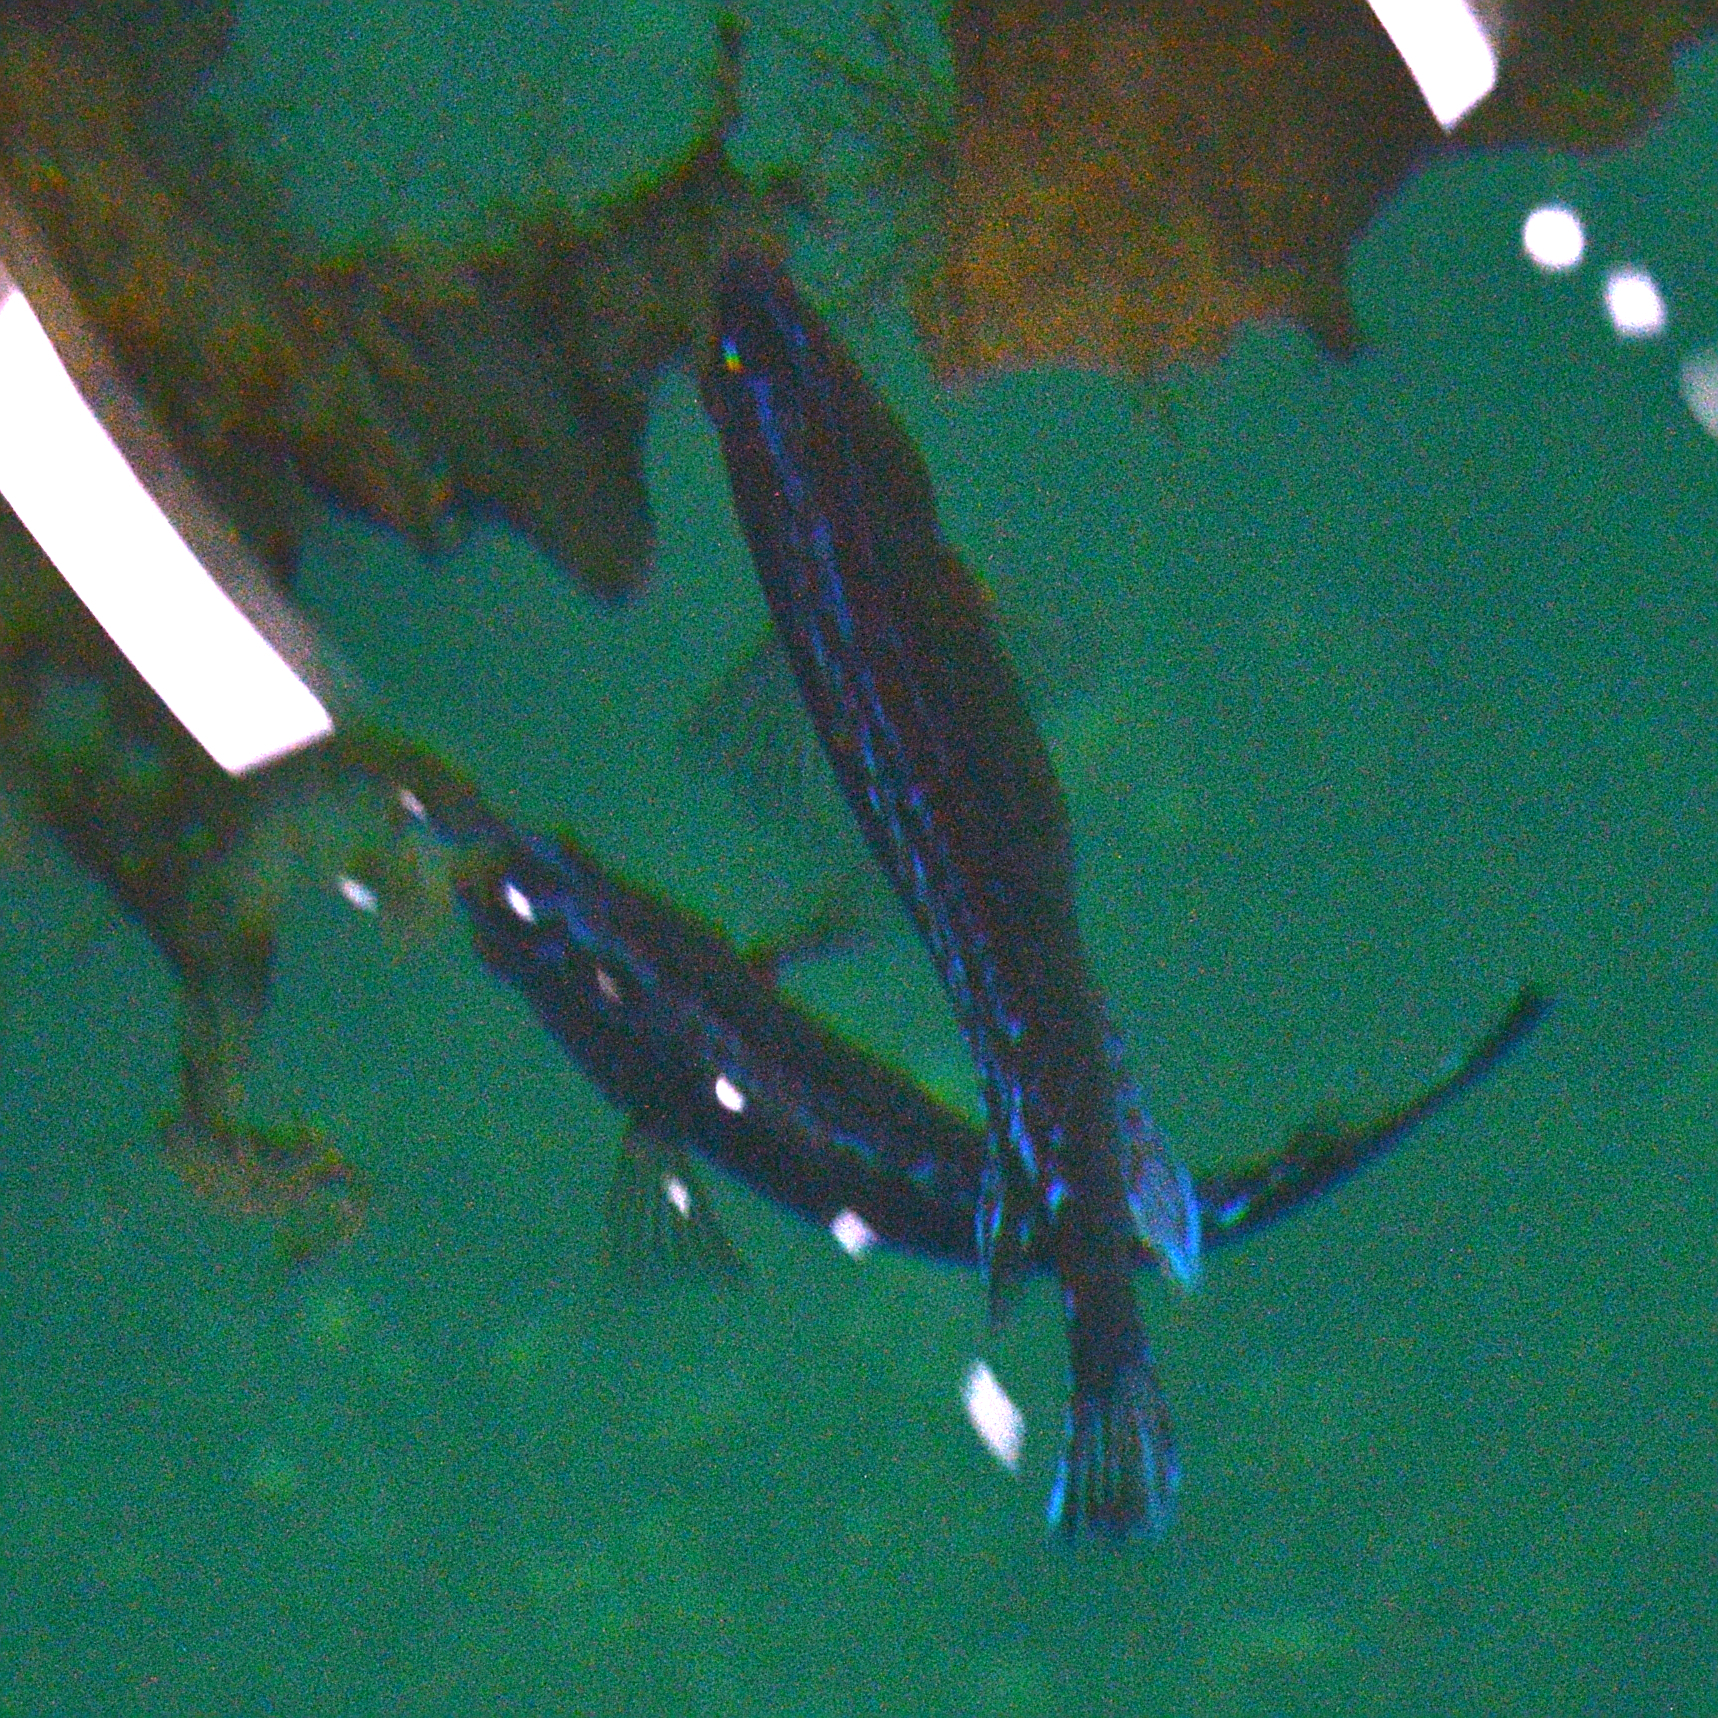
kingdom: Animalia
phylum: Chordata
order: Perciformes
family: Labridae
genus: Centrolabrus
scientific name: Centrolabrus exoletus
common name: Rock cook
